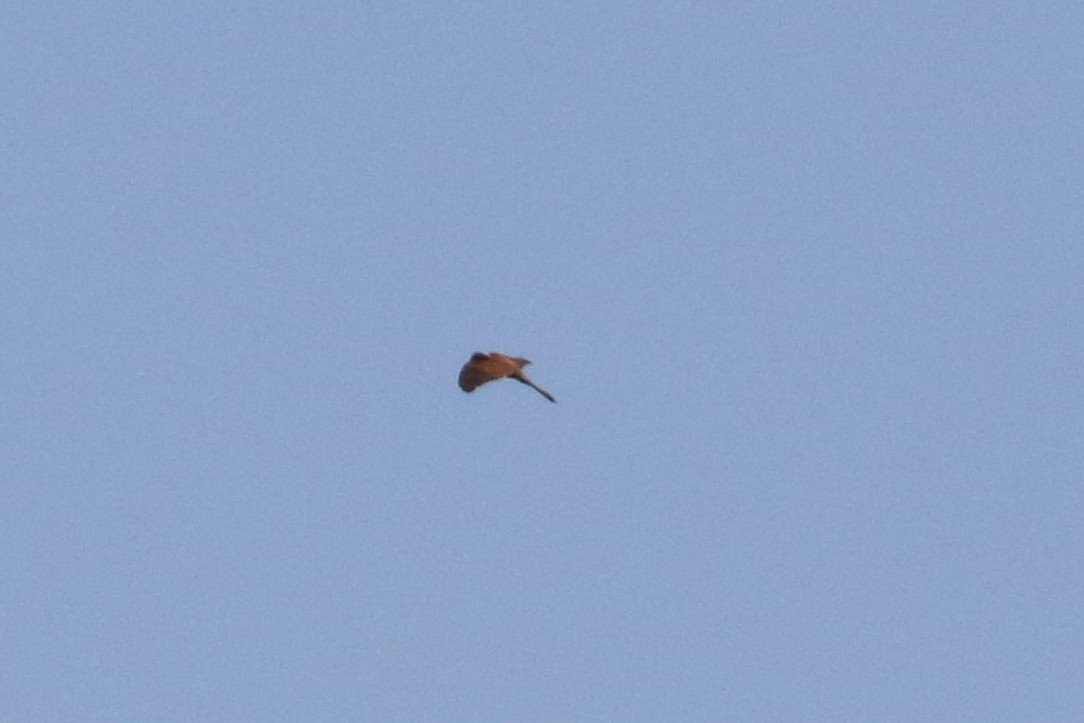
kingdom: Animalia
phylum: Chordata
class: Aves
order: Falconiformes
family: Falconidae
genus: Falco
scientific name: Falco tinnunculus
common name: Common kestrel
